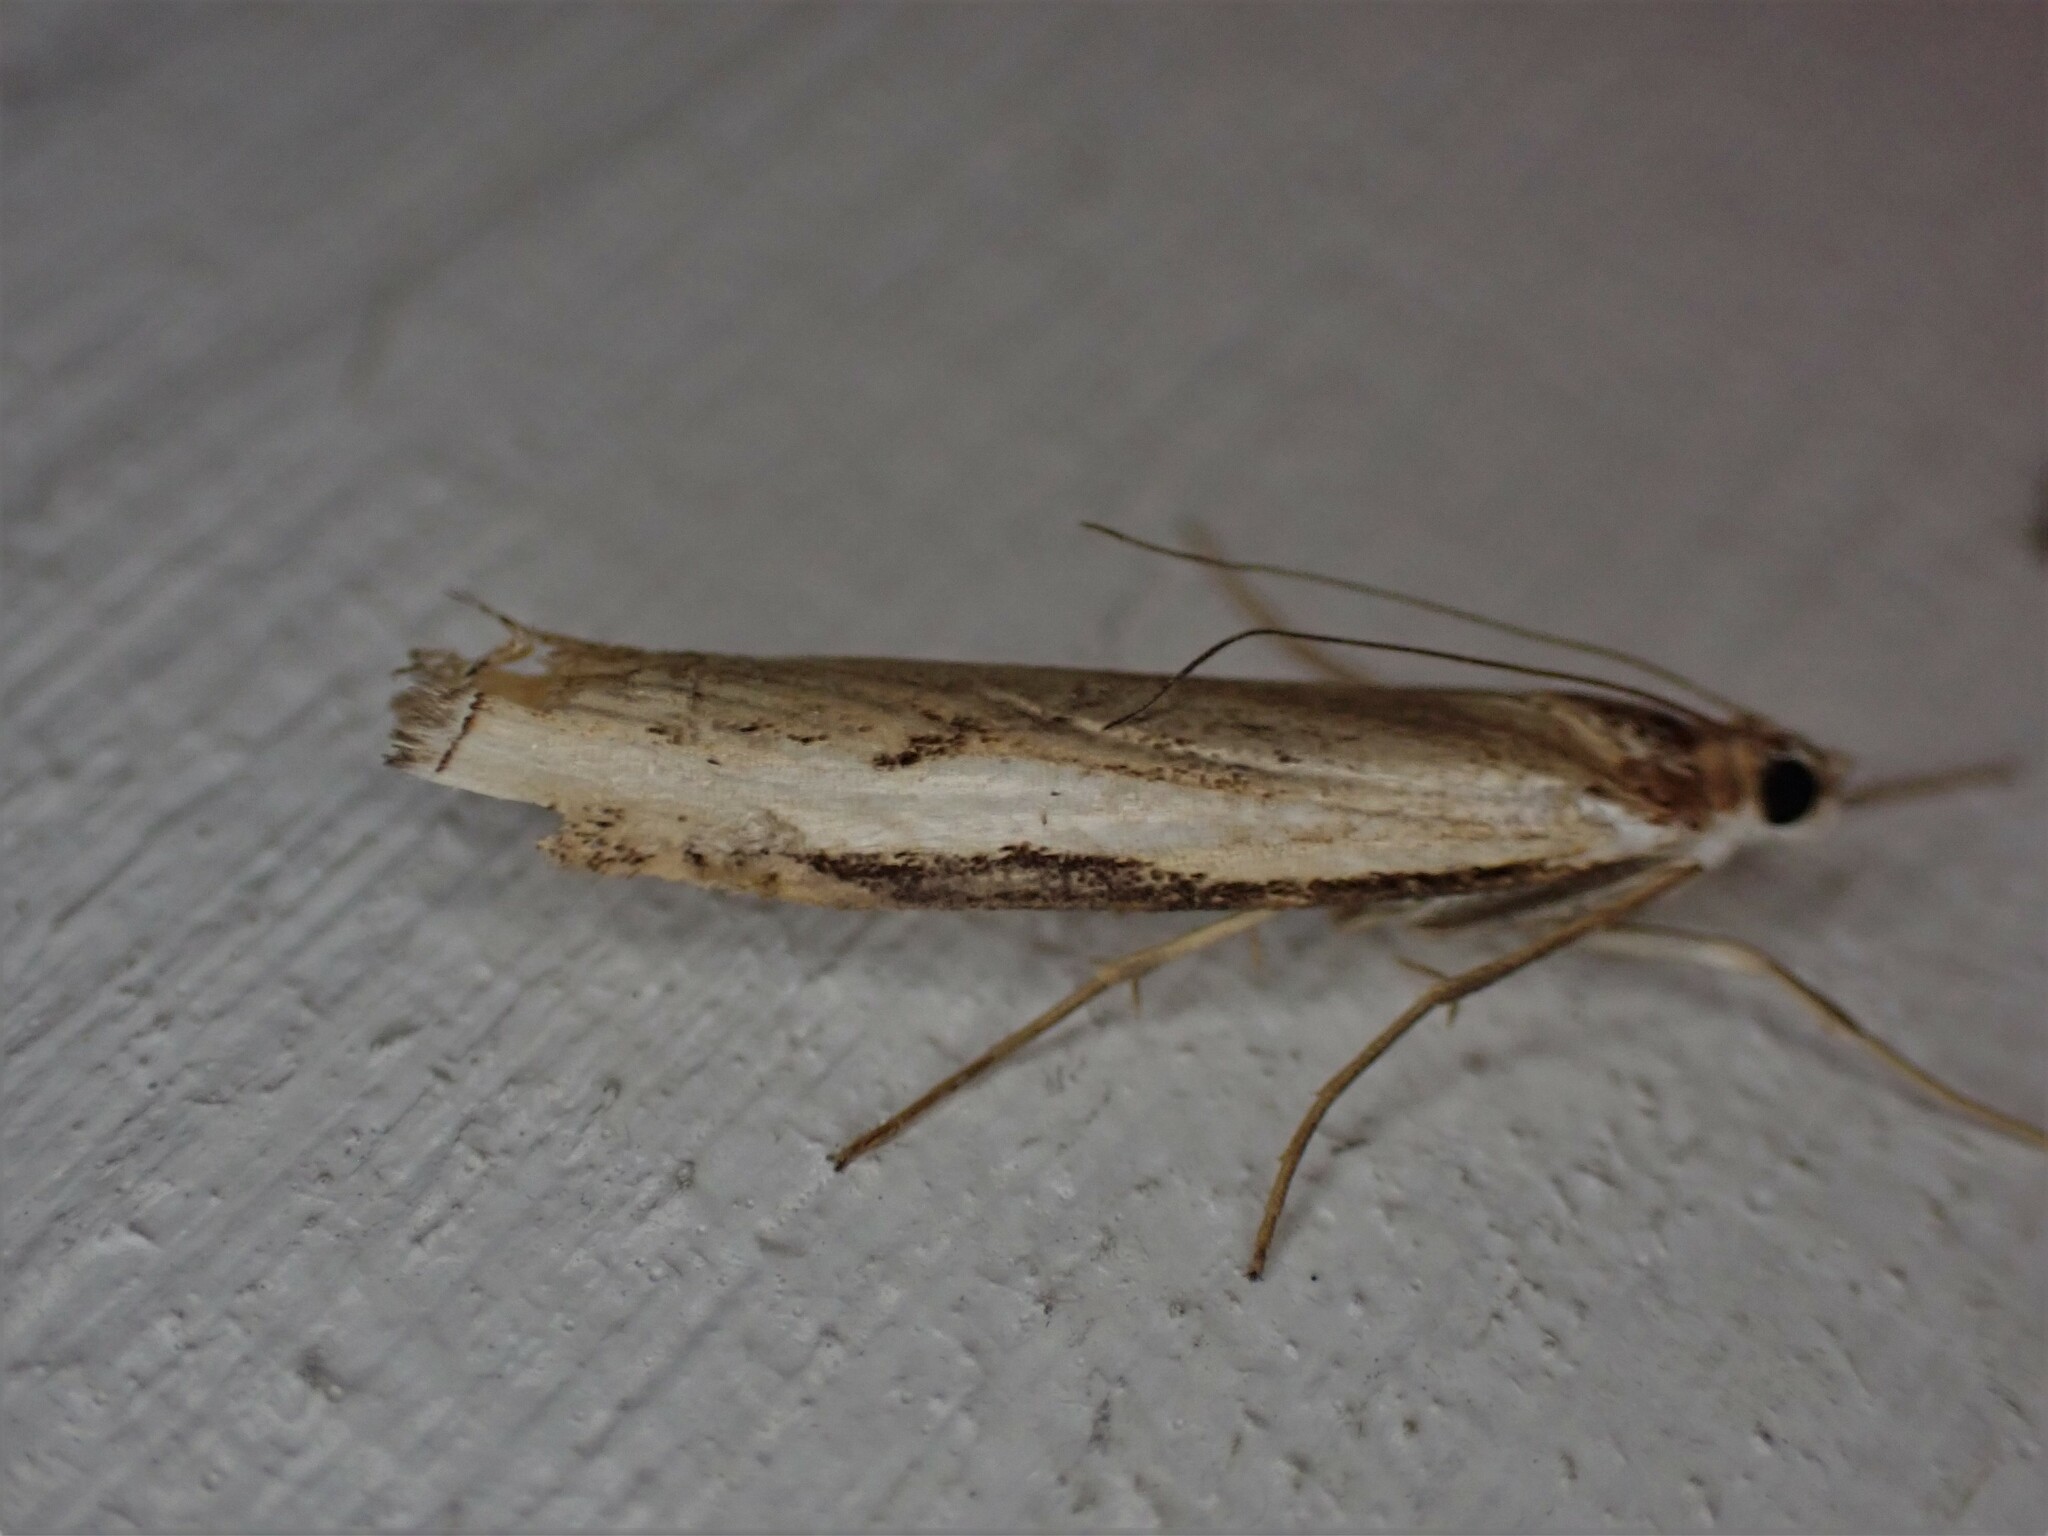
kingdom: Animalia
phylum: Arthropoda
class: Insecta
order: Lepidoptera
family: Crambidae
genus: Orocrambus
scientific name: Orocrambus flexuosellus
